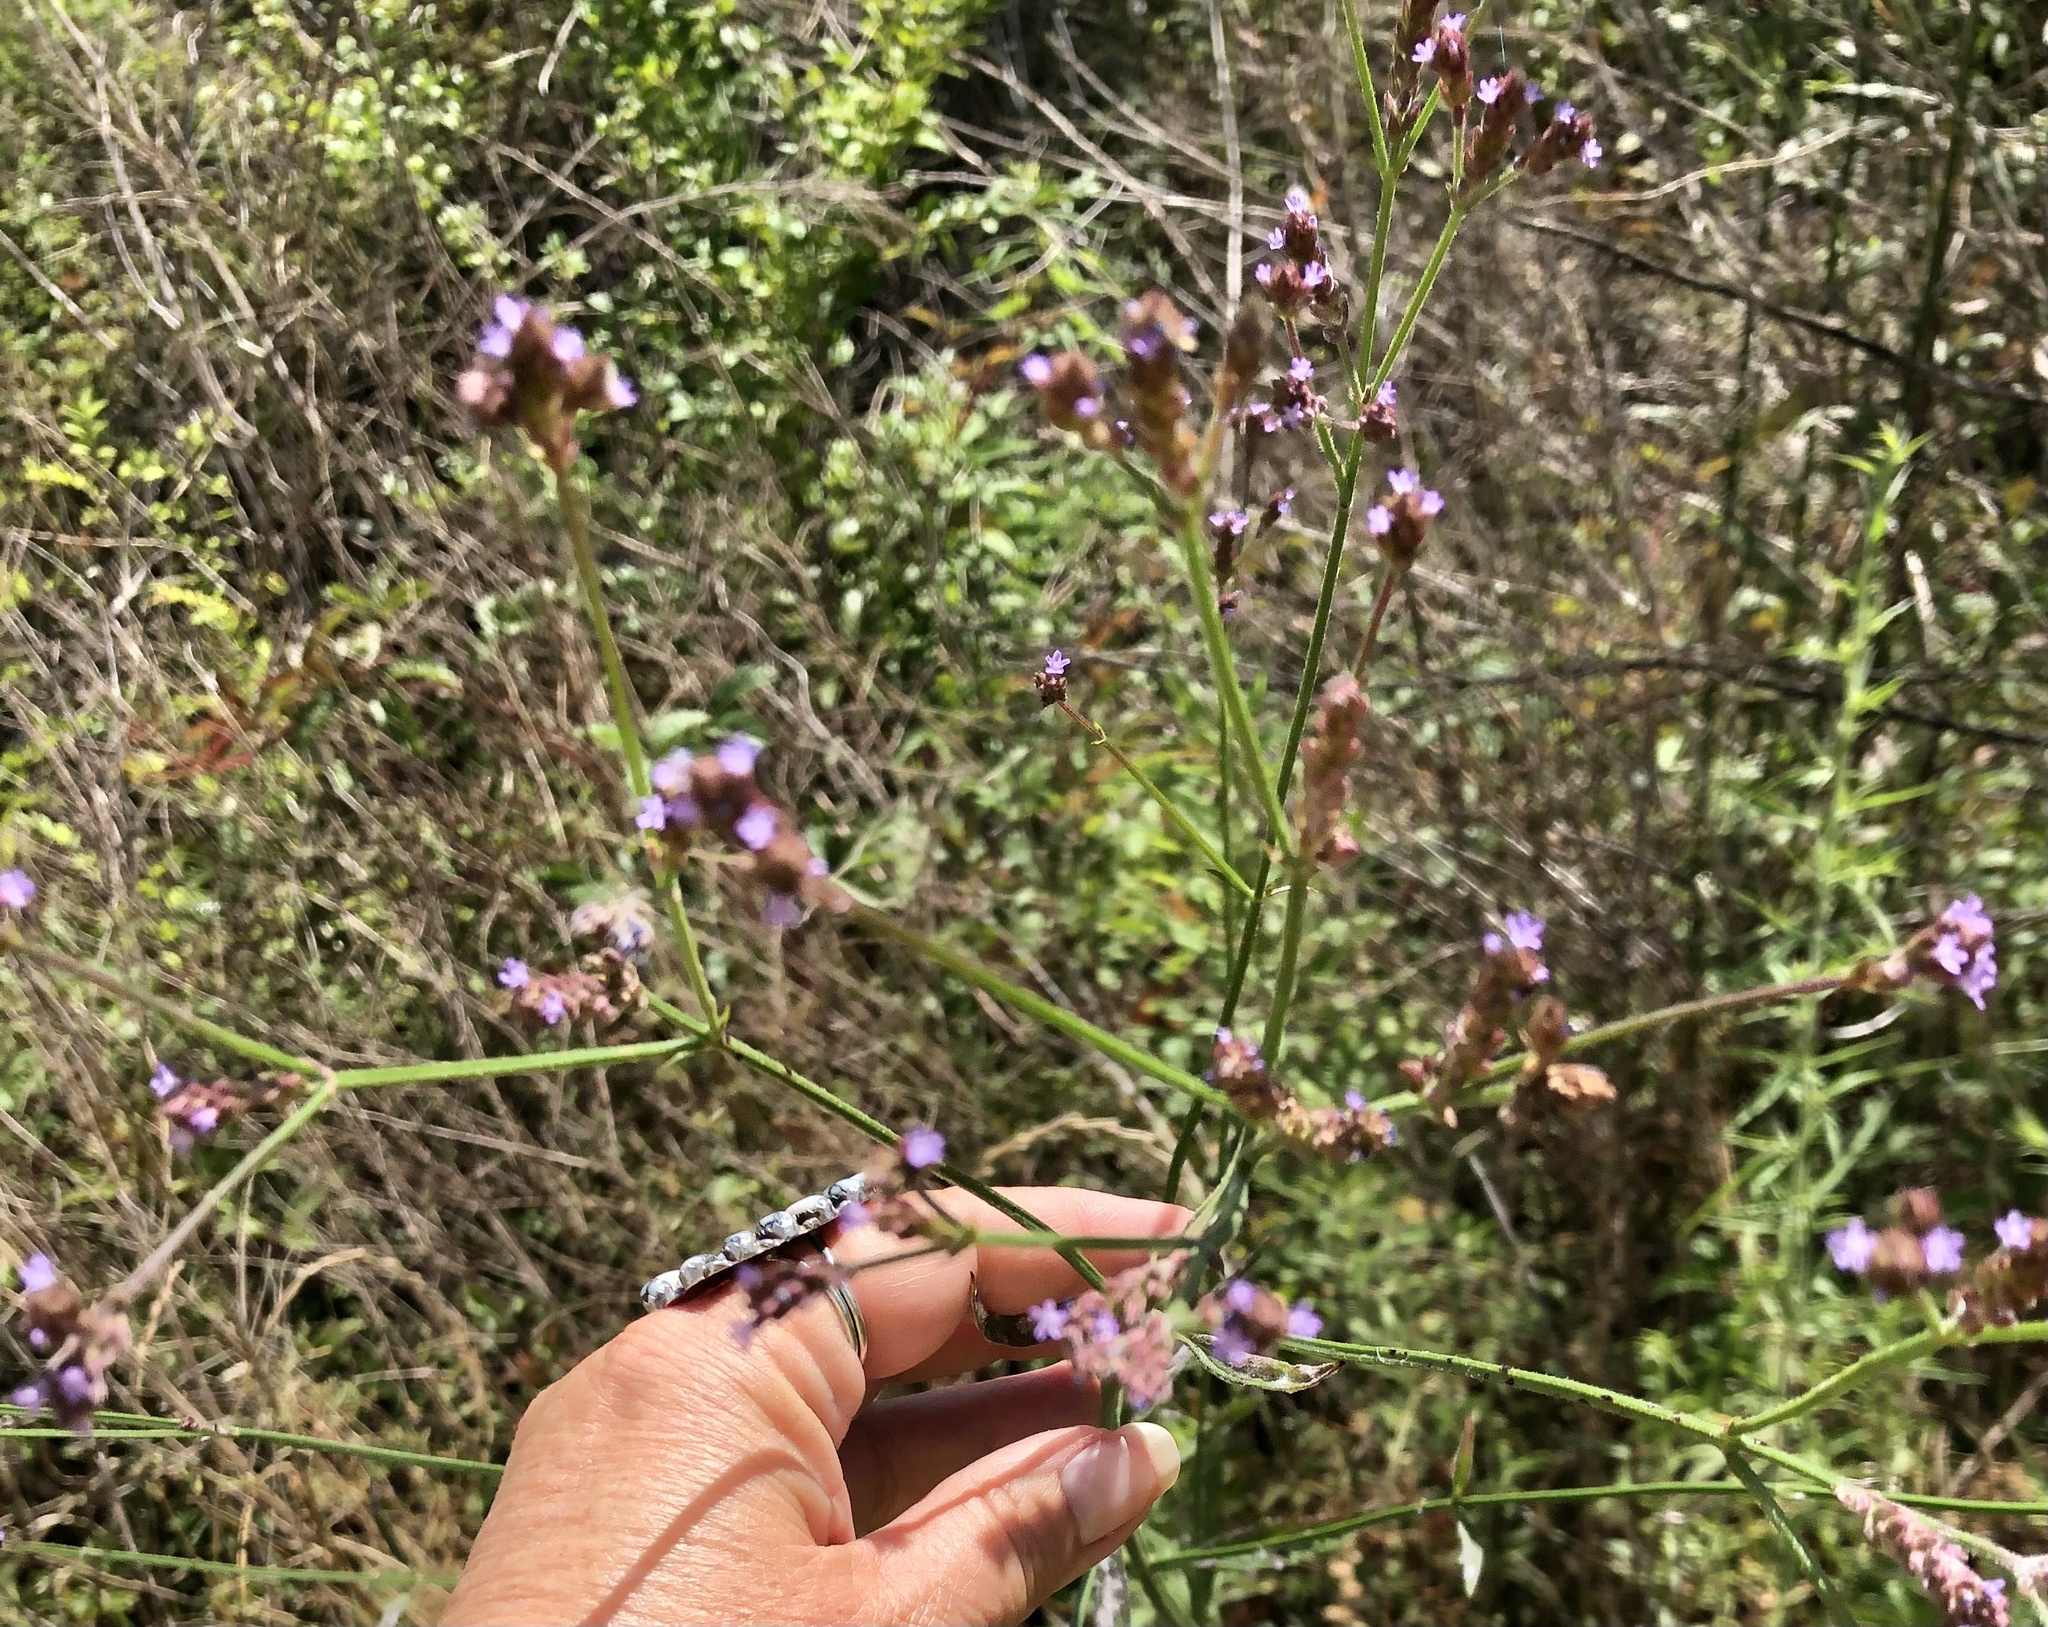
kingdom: Plantae
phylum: Tracheophyta
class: Magnoliopsida
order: Lamiales
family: Verbenaceae
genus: Verbena
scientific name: Verbena brasiliensis
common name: Brazilian vervain
